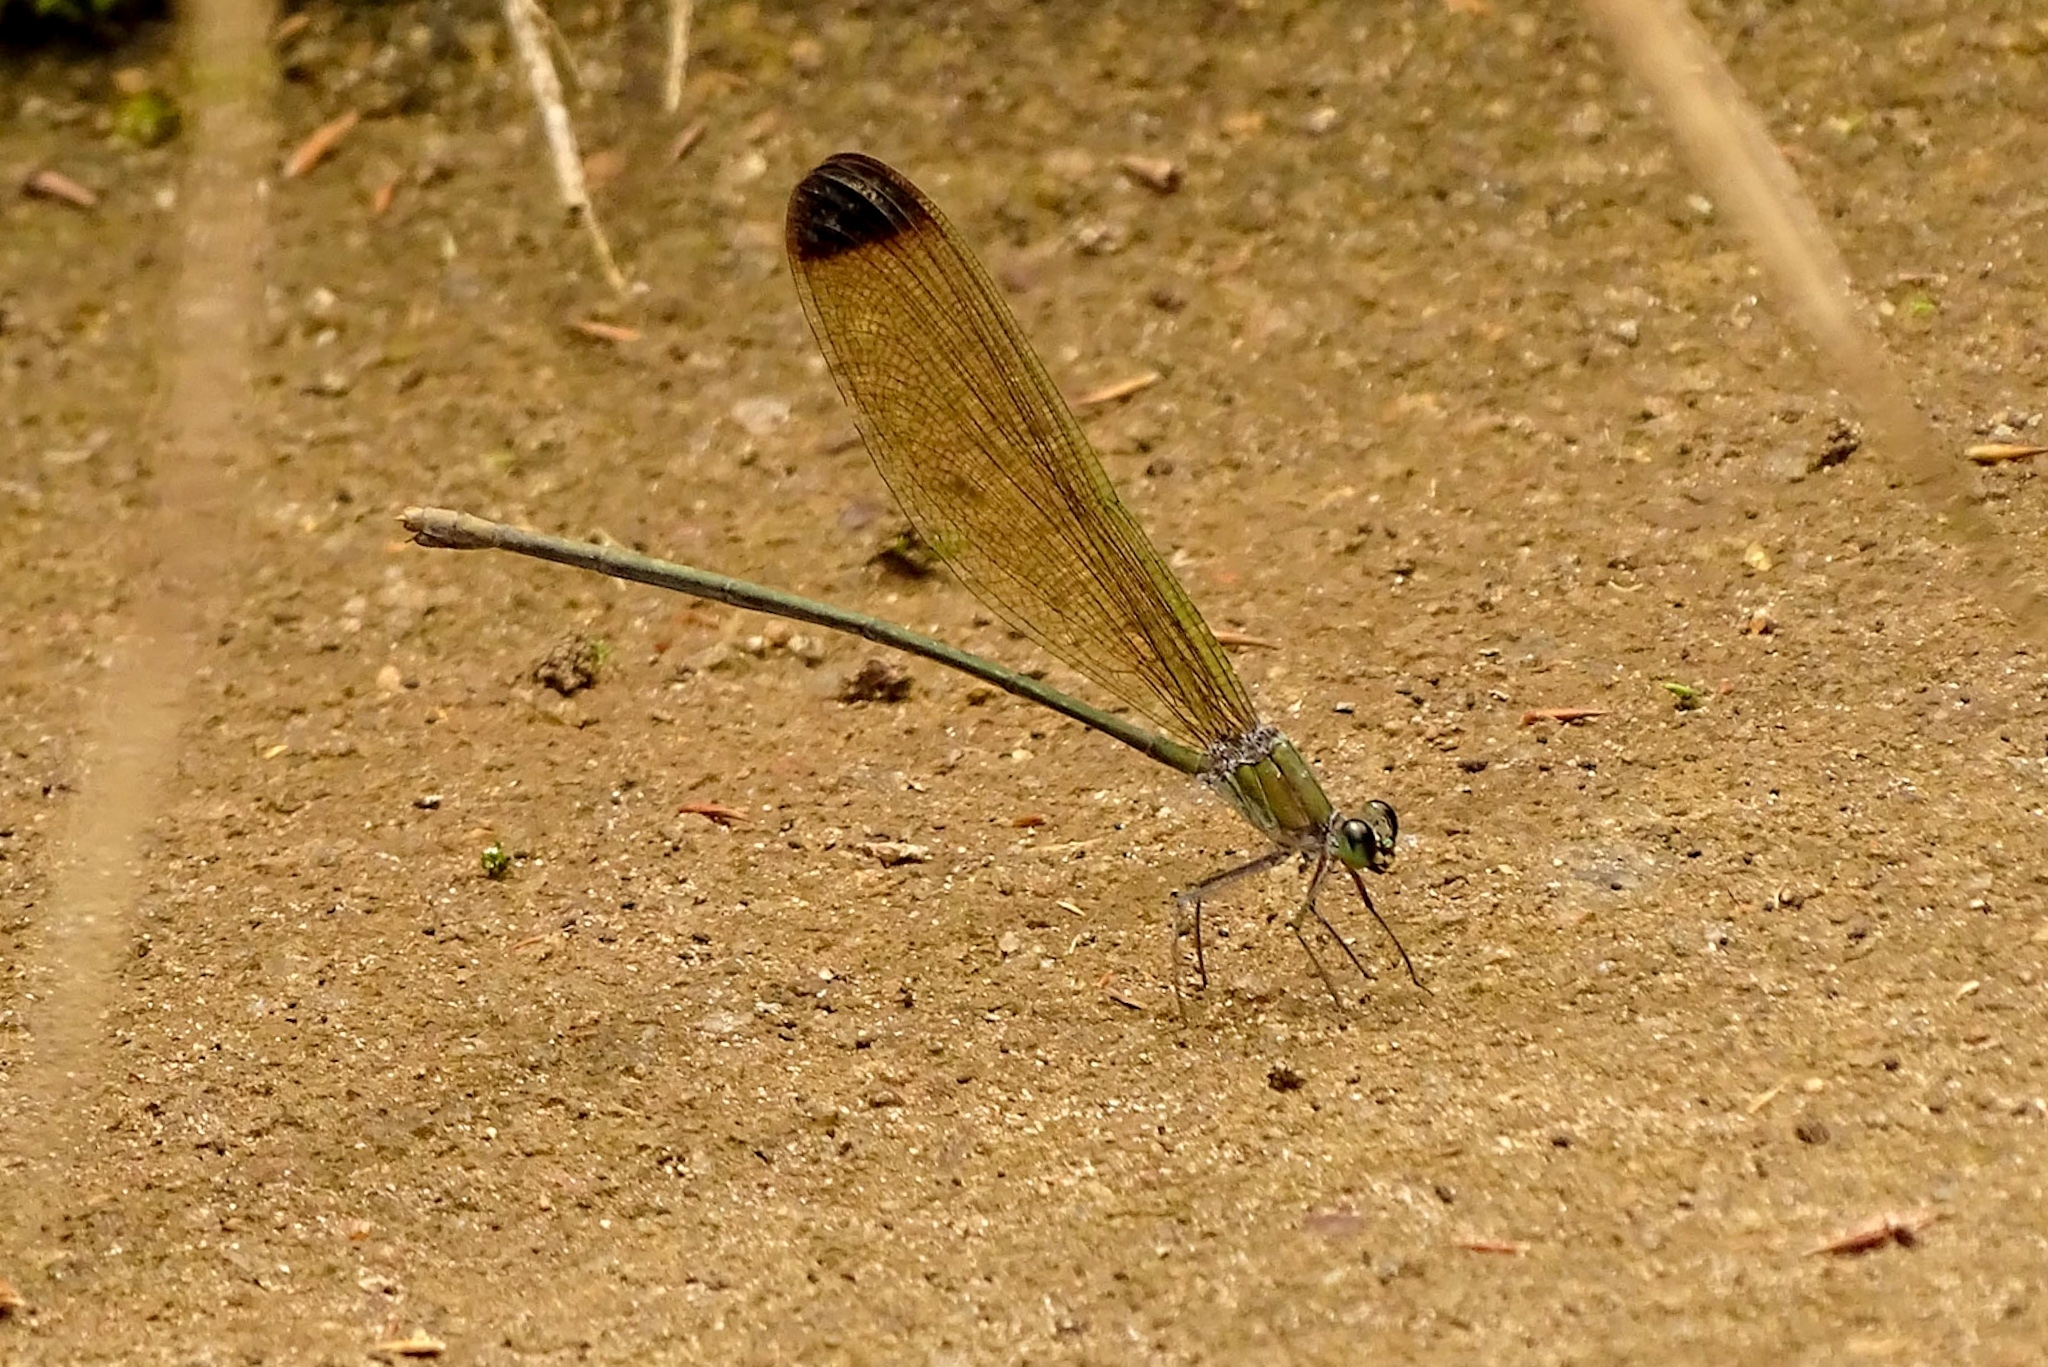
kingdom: Animalia
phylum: Arthropoda
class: Insecta
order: Odonata
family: Calopterygidae
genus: Vestalis
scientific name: Vestalis apicalis
